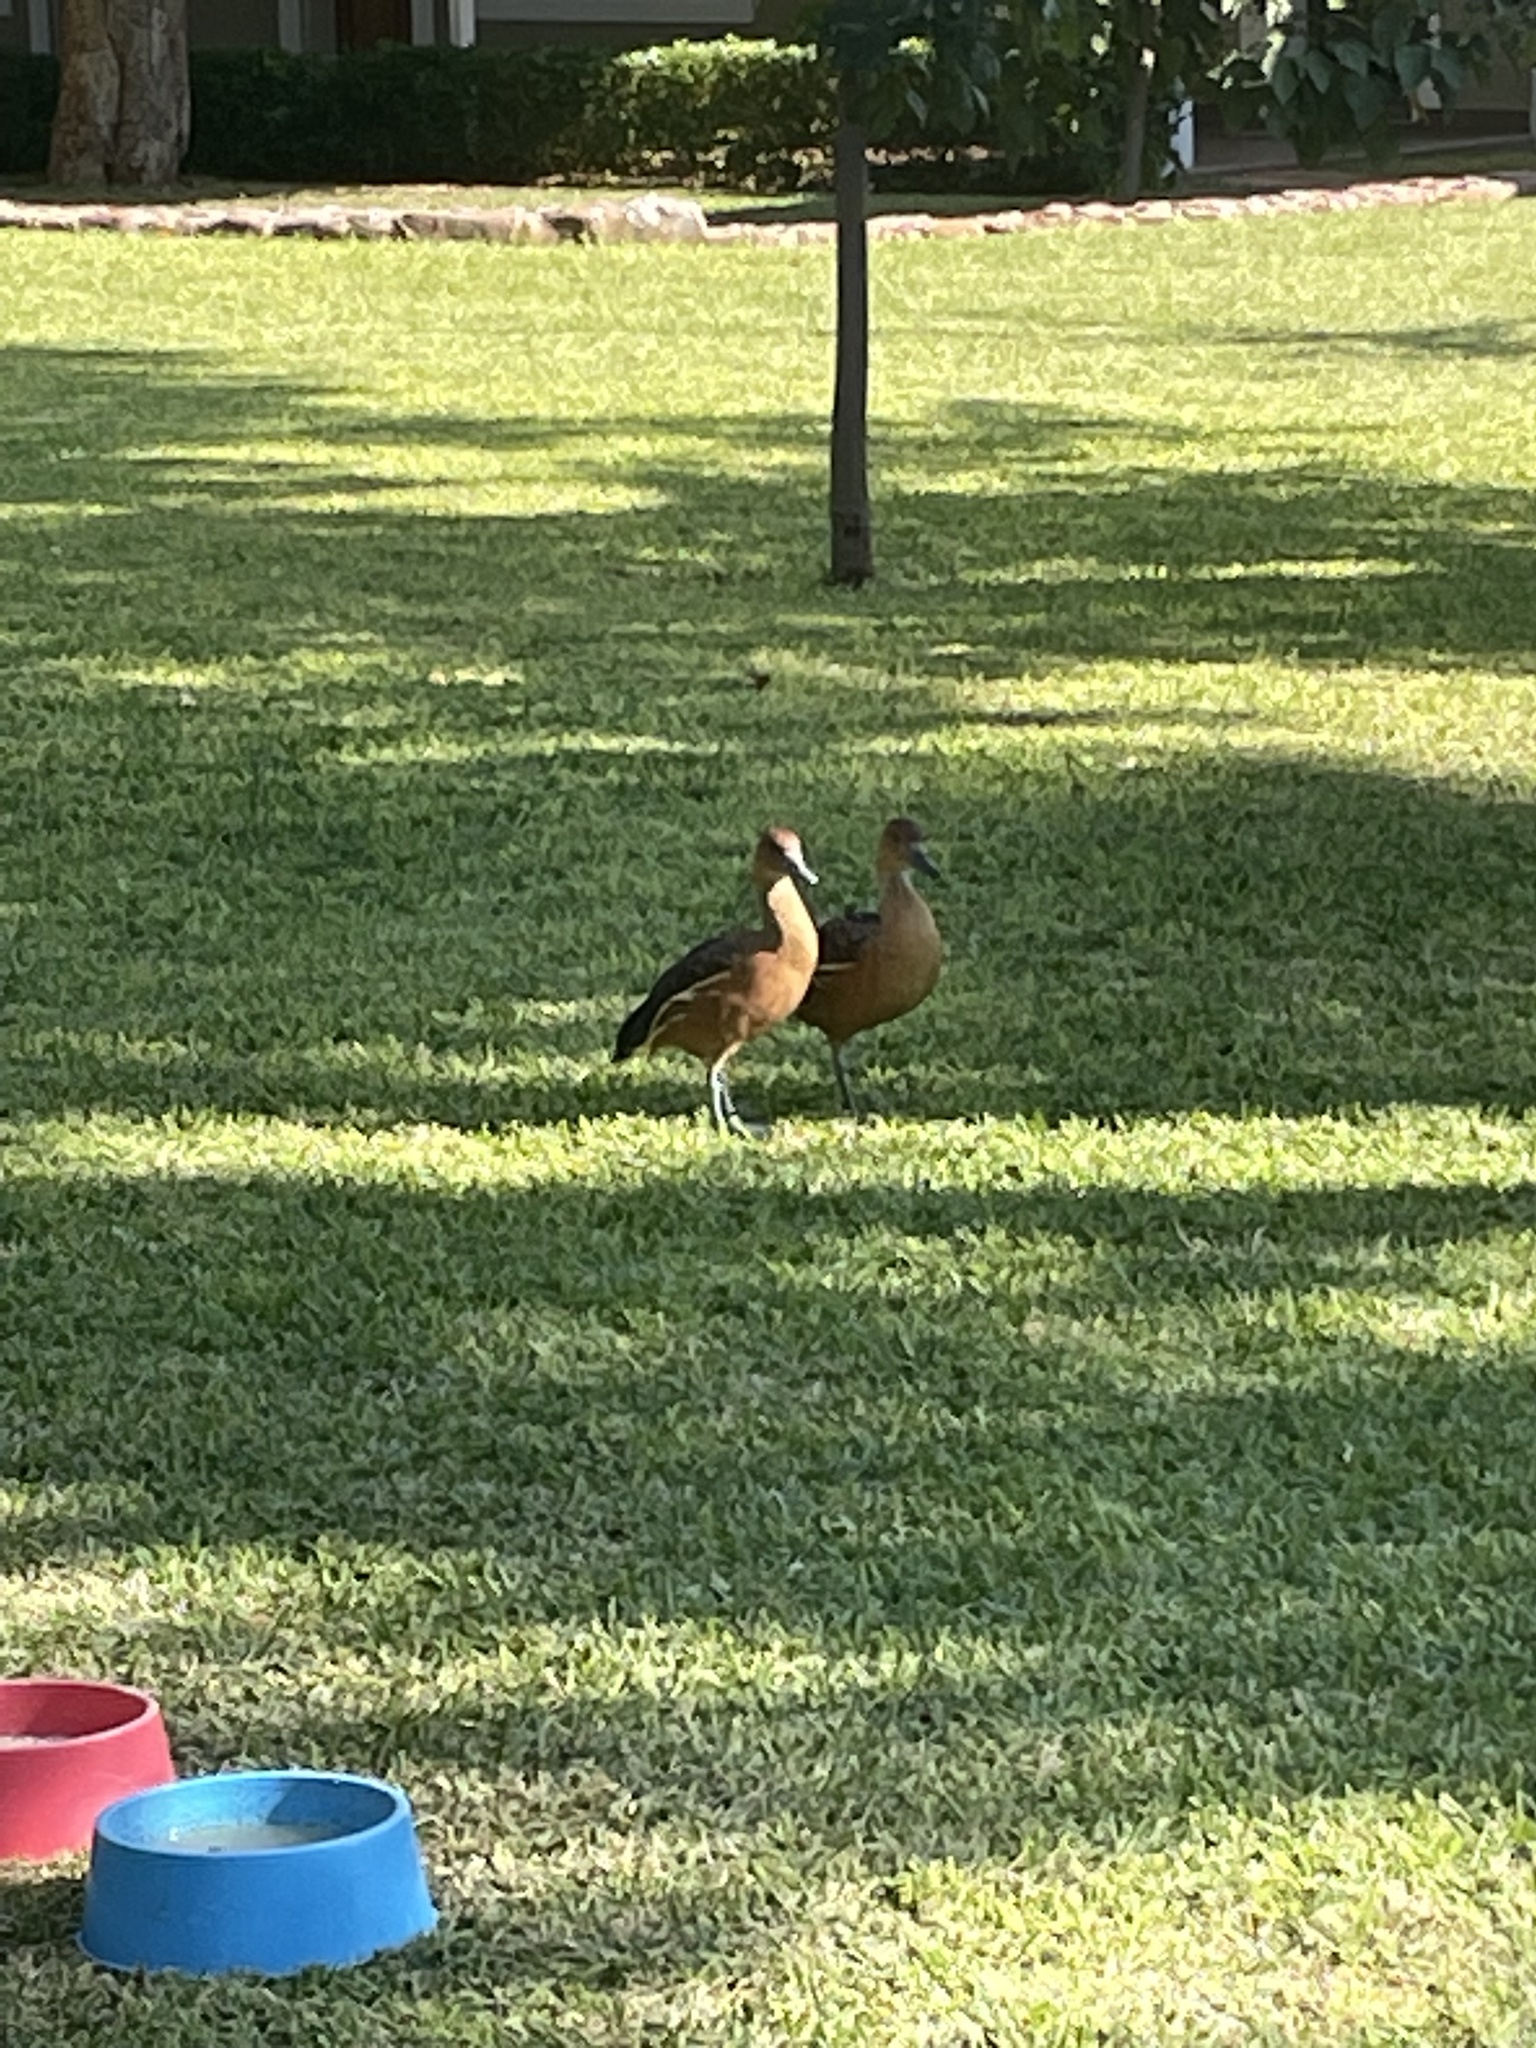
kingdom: Animalia
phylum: Chordata
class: Aves
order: Anseriformes
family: Anatidae
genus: Dendrocygna
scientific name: Dendrocygna bicolor
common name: Fulvous whistling duck
